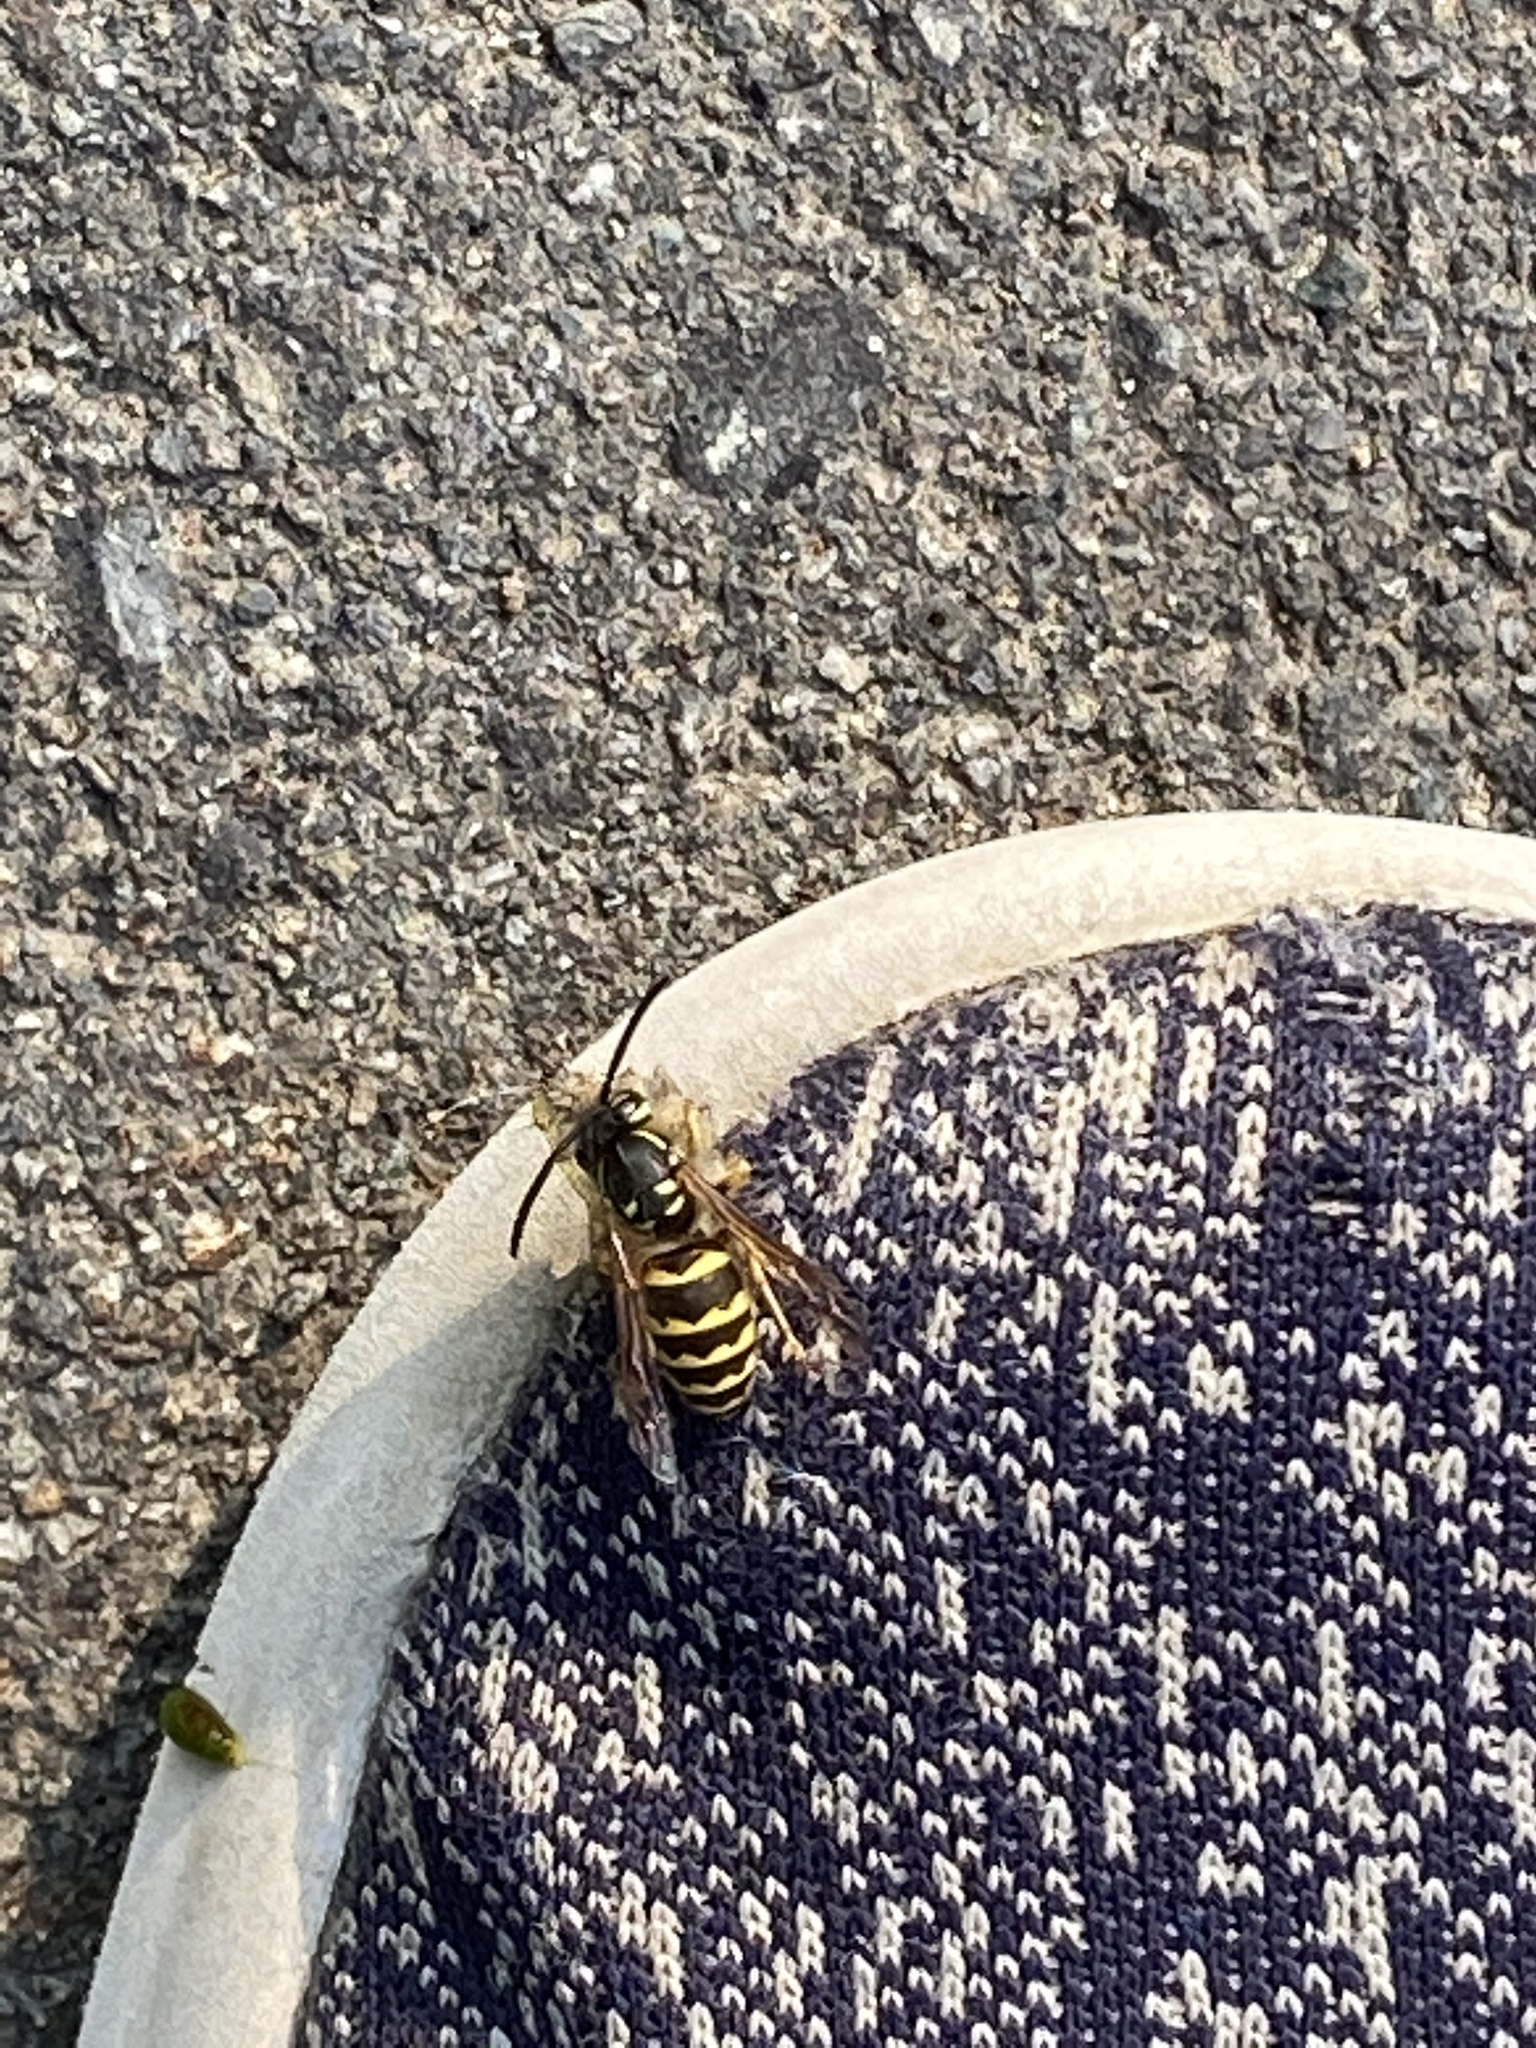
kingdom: Animalia
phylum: Arthropoda
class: Insecta
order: Hymenoptera
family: Vespidae
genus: Vespula
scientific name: Vespula alascensis
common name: Alaska yellowjacket
